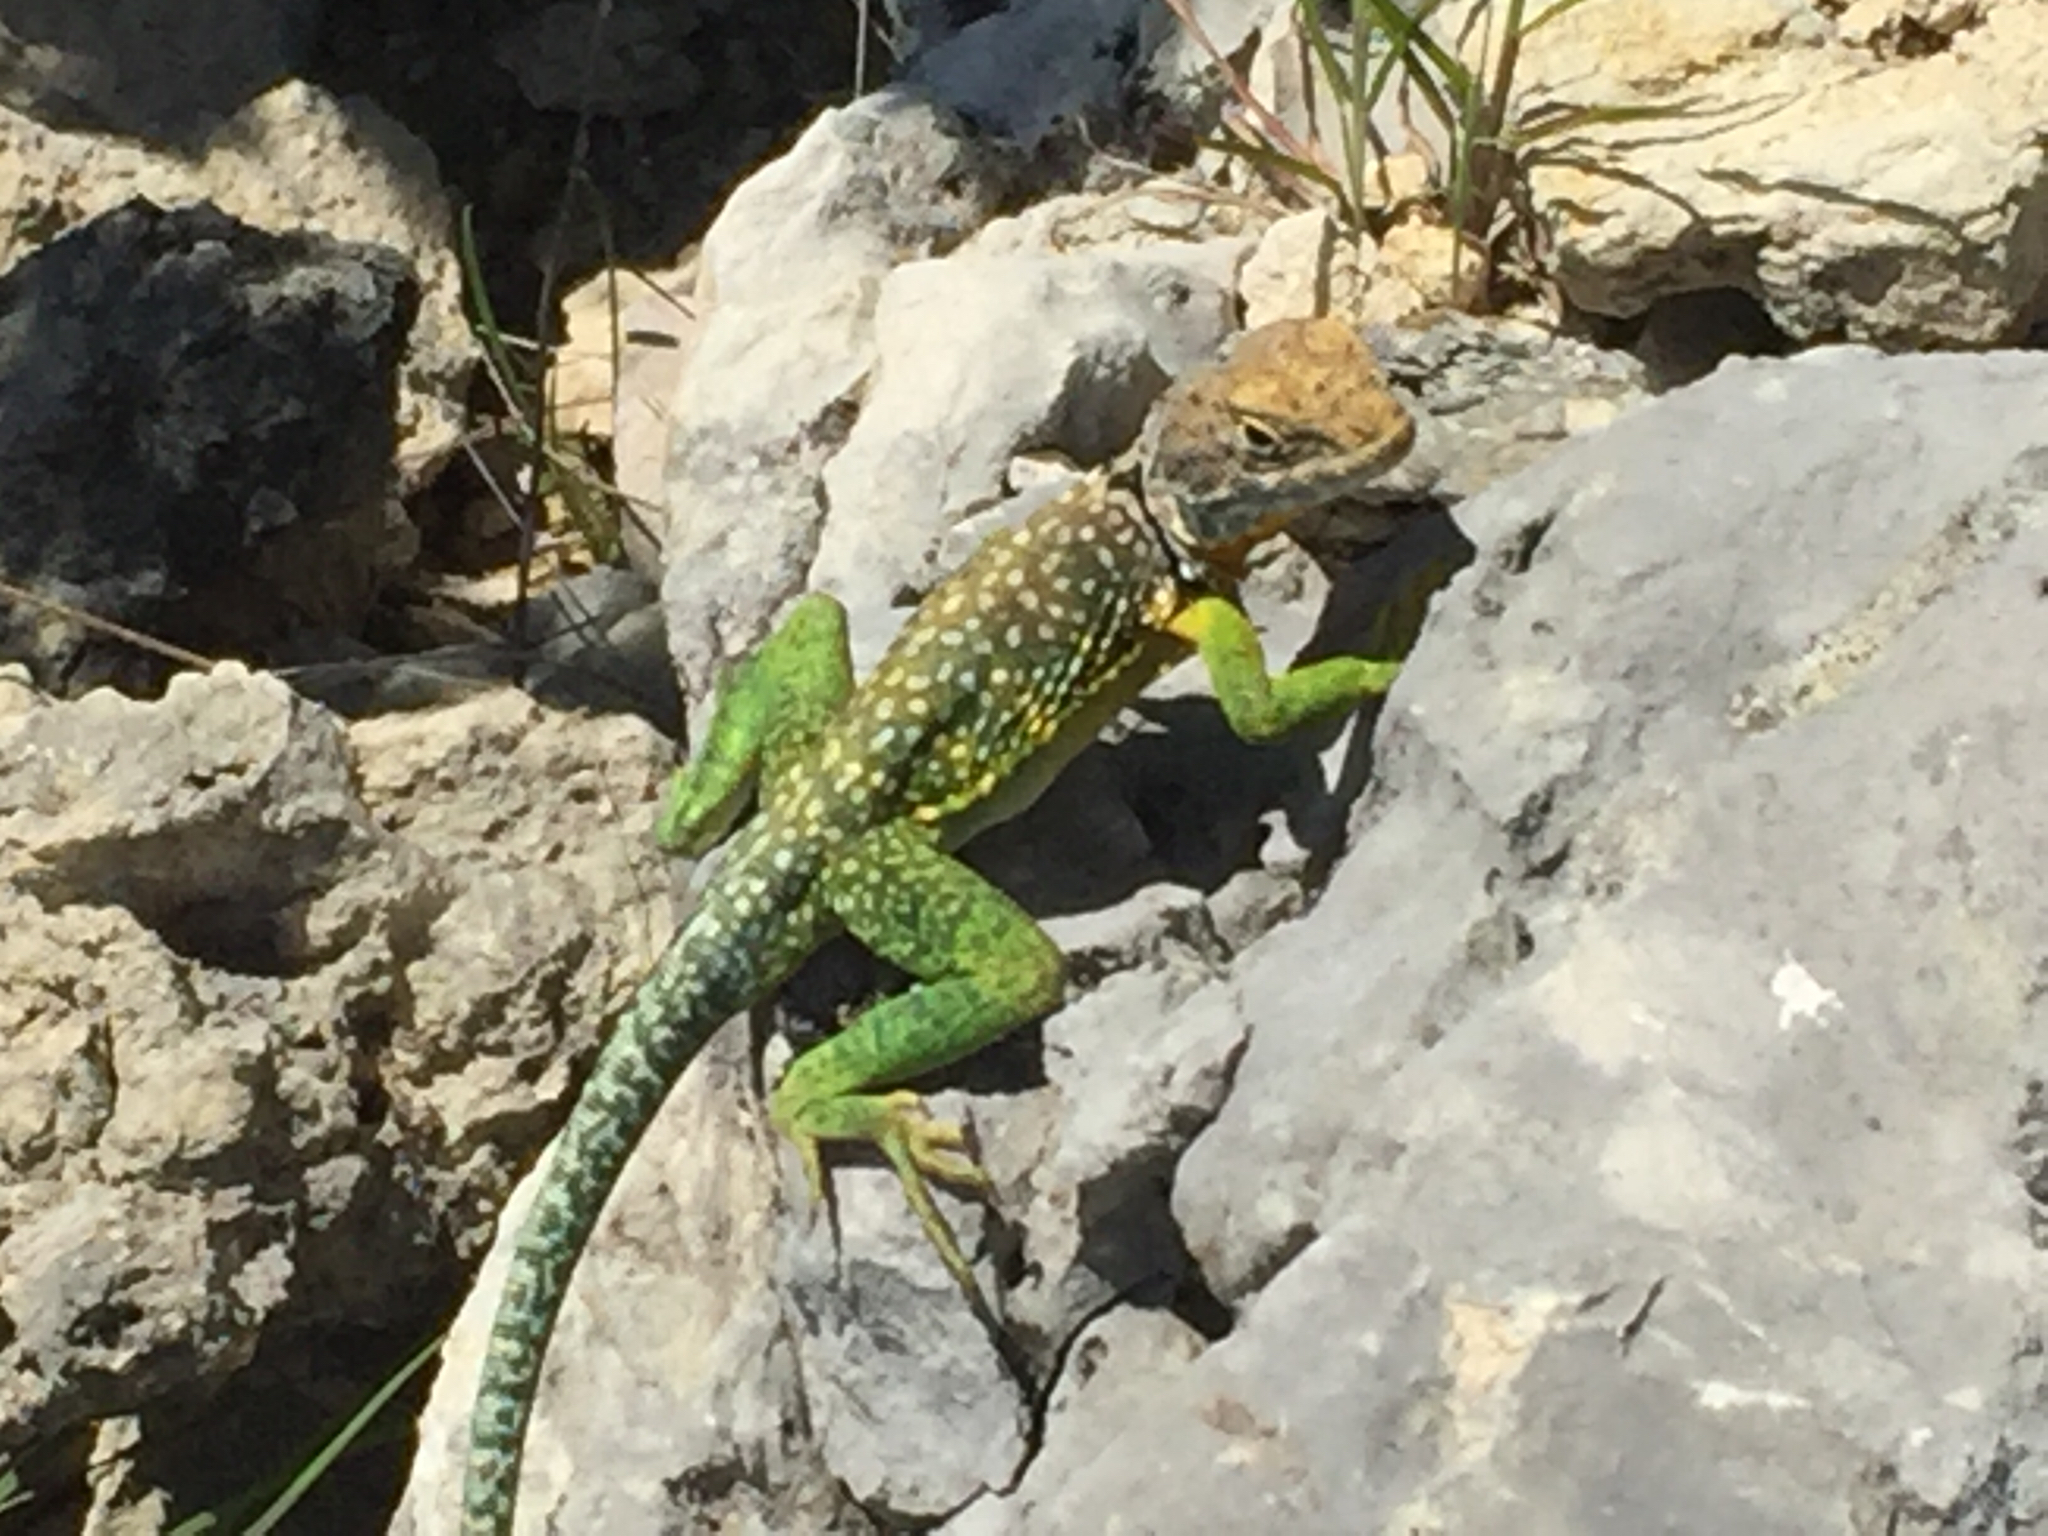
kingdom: Animalia
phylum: Chordata
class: Squamata
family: Crotaphytidae
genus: Crotaphytus
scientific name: Crotaphytus collaris
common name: Collared lizard
